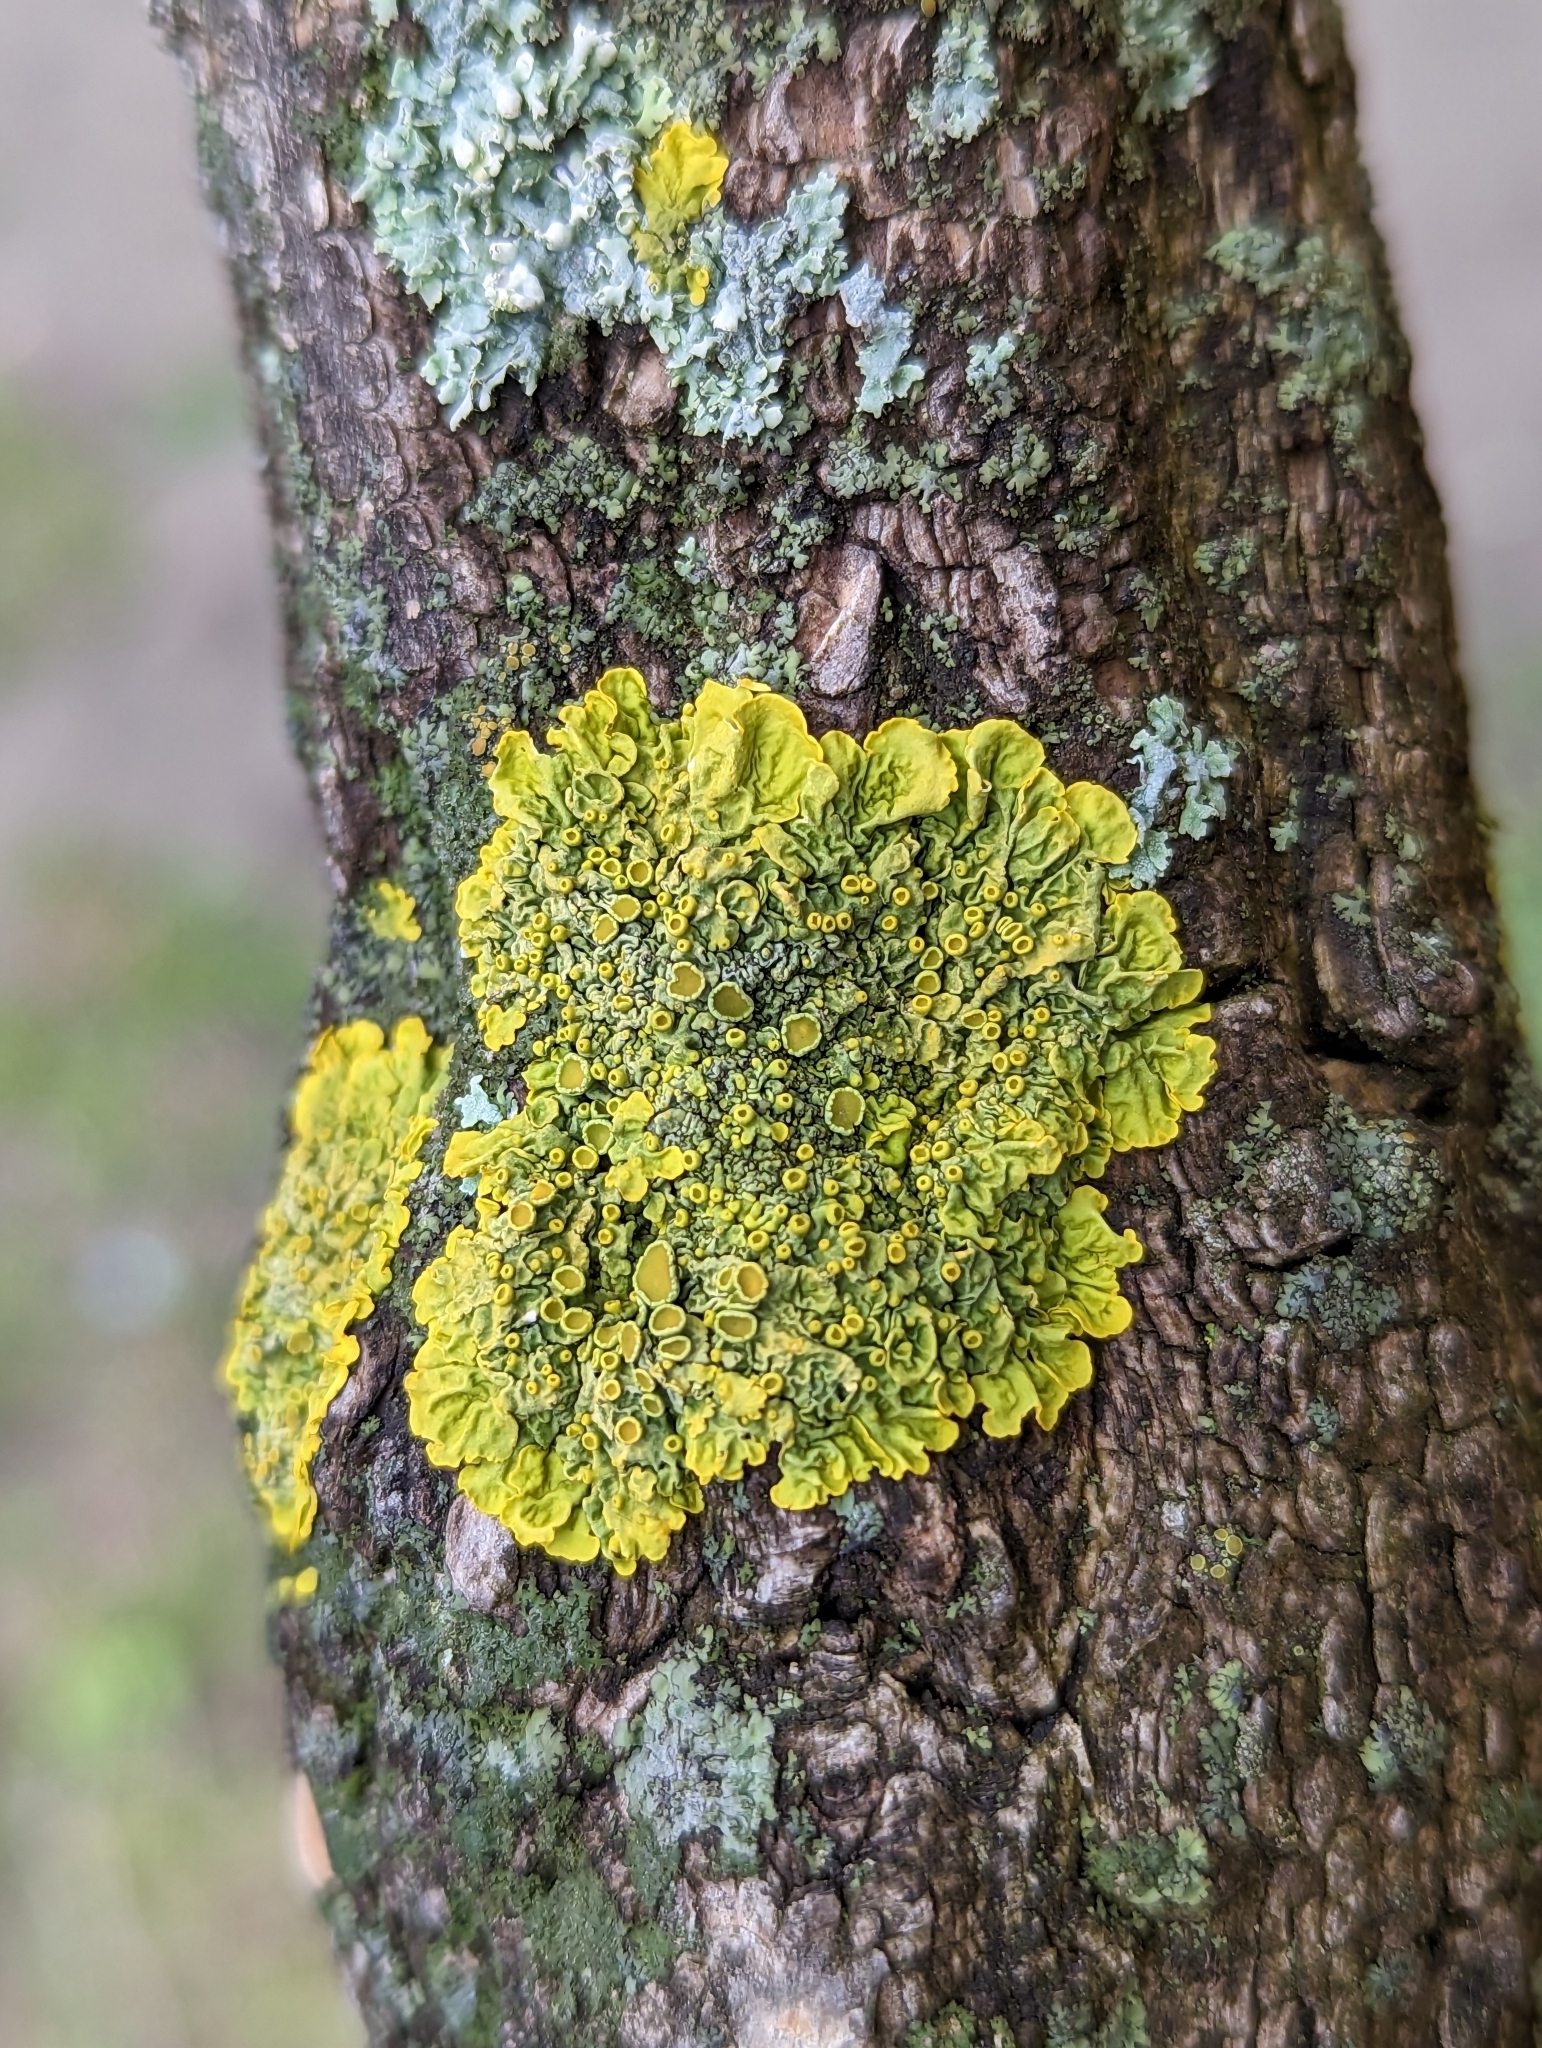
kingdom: Fungi
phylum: Ascomycota
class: Lecanoromycetes
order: Teloschistales
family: Teloschistaceae
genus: Xanthoria
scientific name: Xanthoria parietina
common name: Common orange lichen
